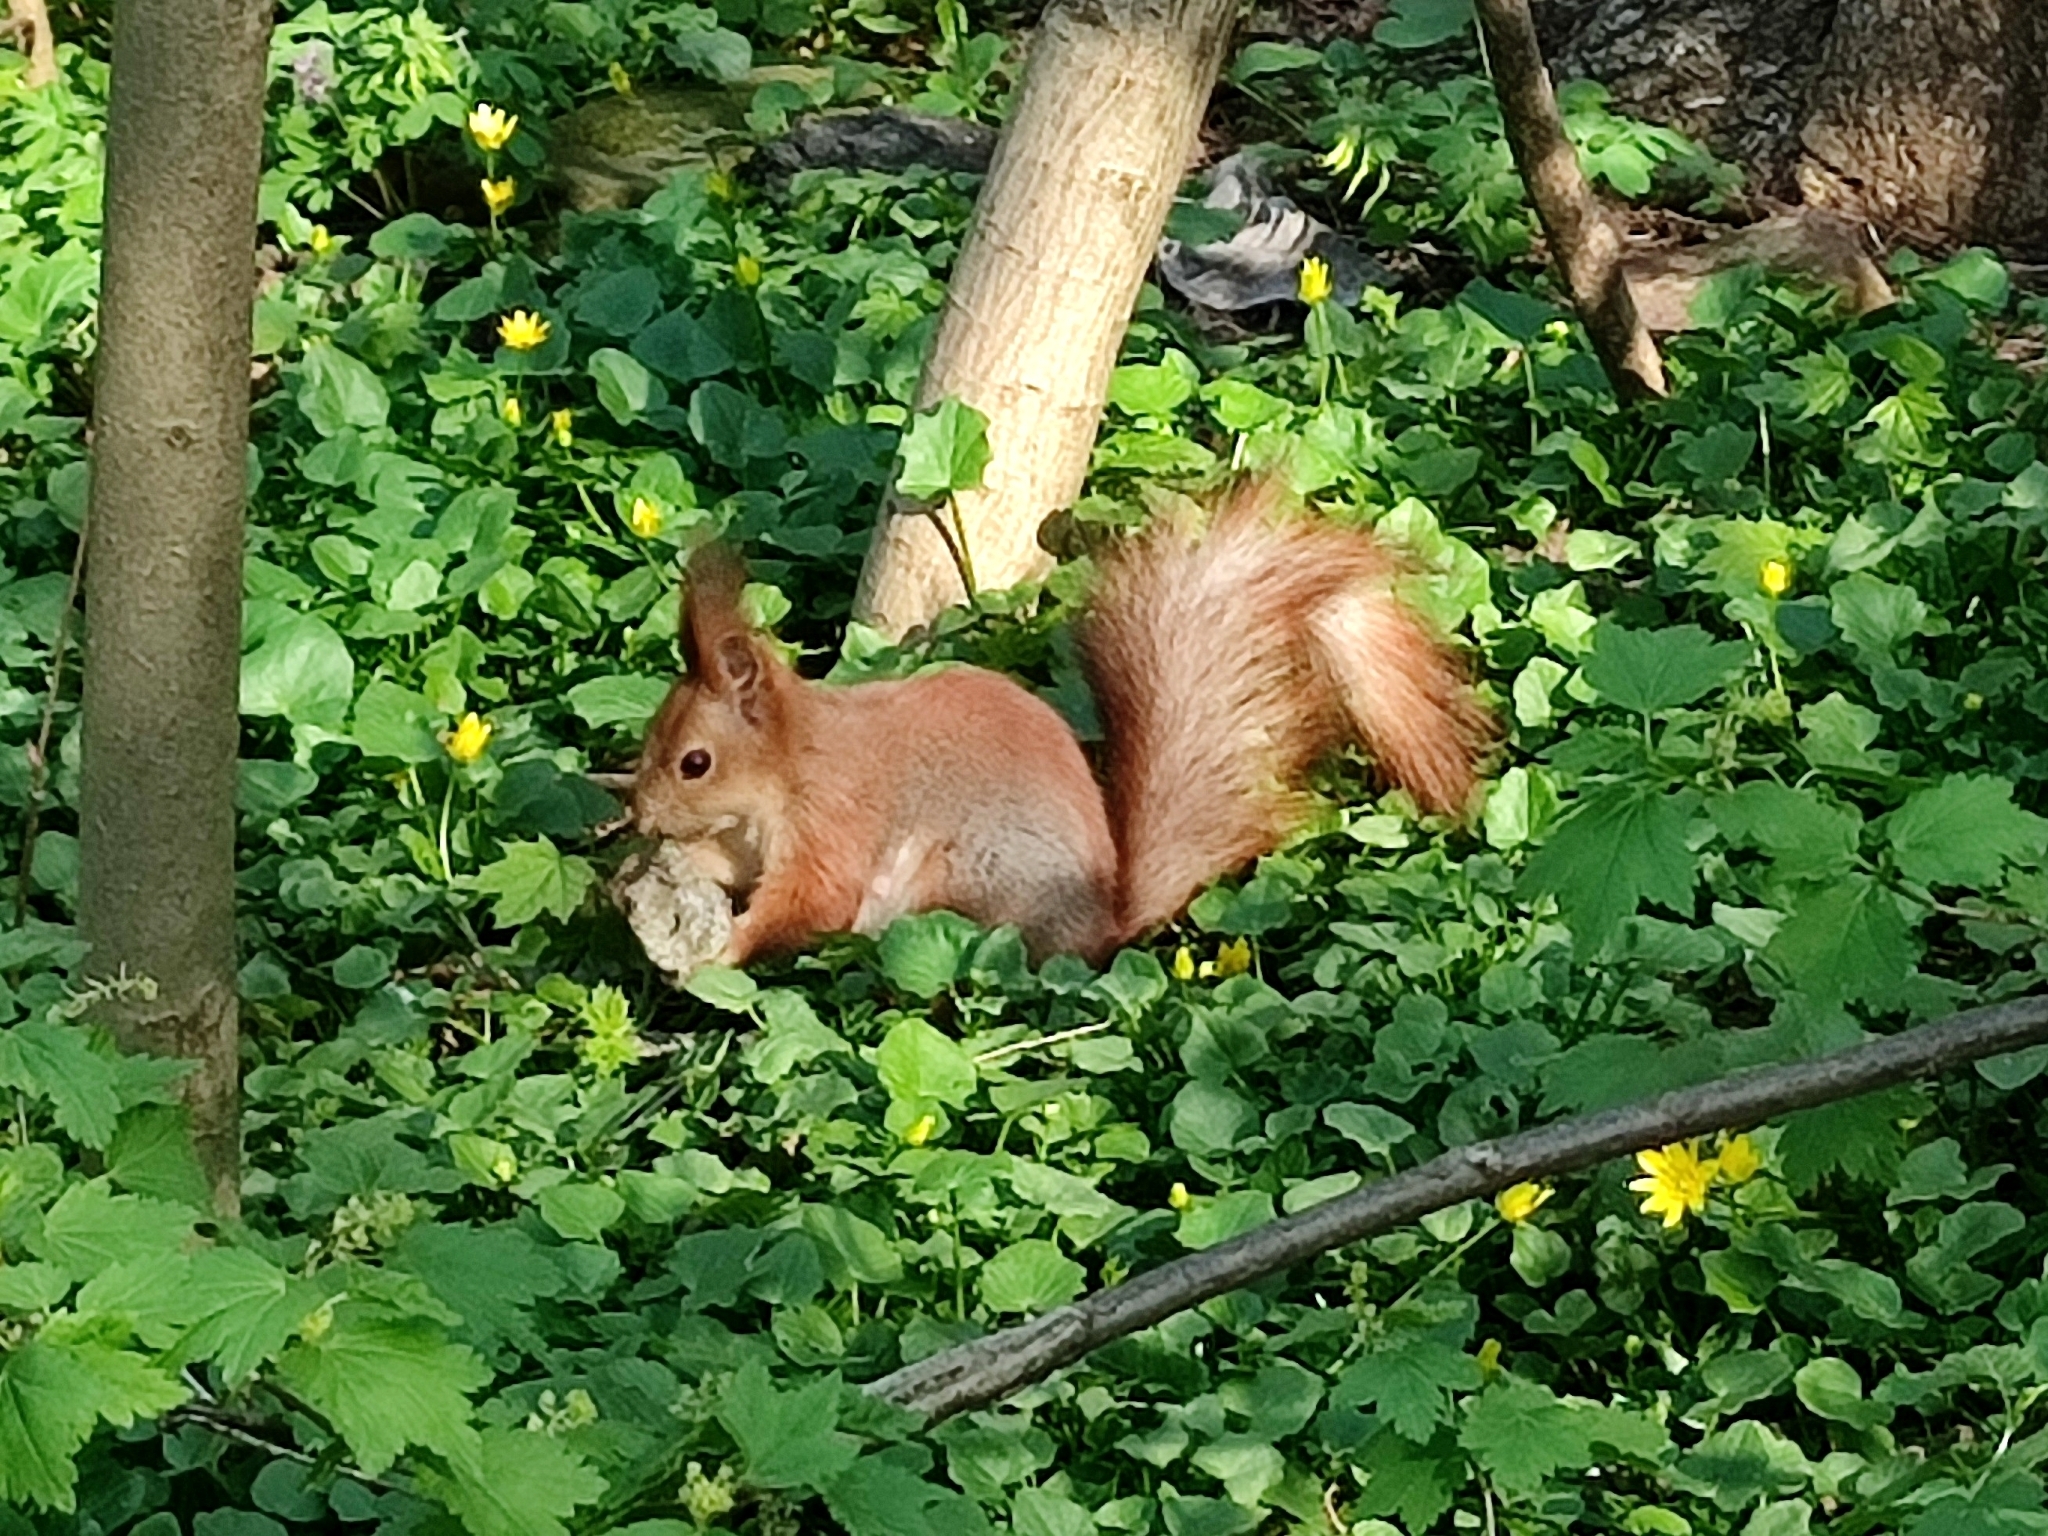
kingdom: Animalia
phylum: Chordata
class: Mammalia
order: Rodentia
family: Sciuridae
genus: Sciurus
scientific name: Sciurus vulgaris
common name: Eurasian red squirrel
